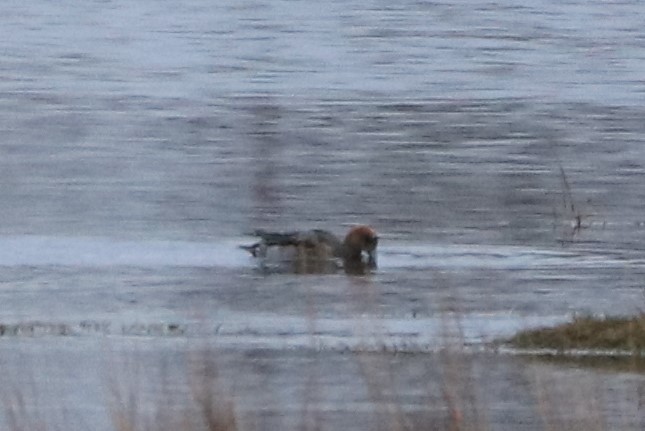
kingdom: Animalia
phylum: Chordata
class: Aves
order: Anseriformes
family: Anatidae
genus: Mareca
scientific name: Mareca penelope
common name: Eurasian wigeon
